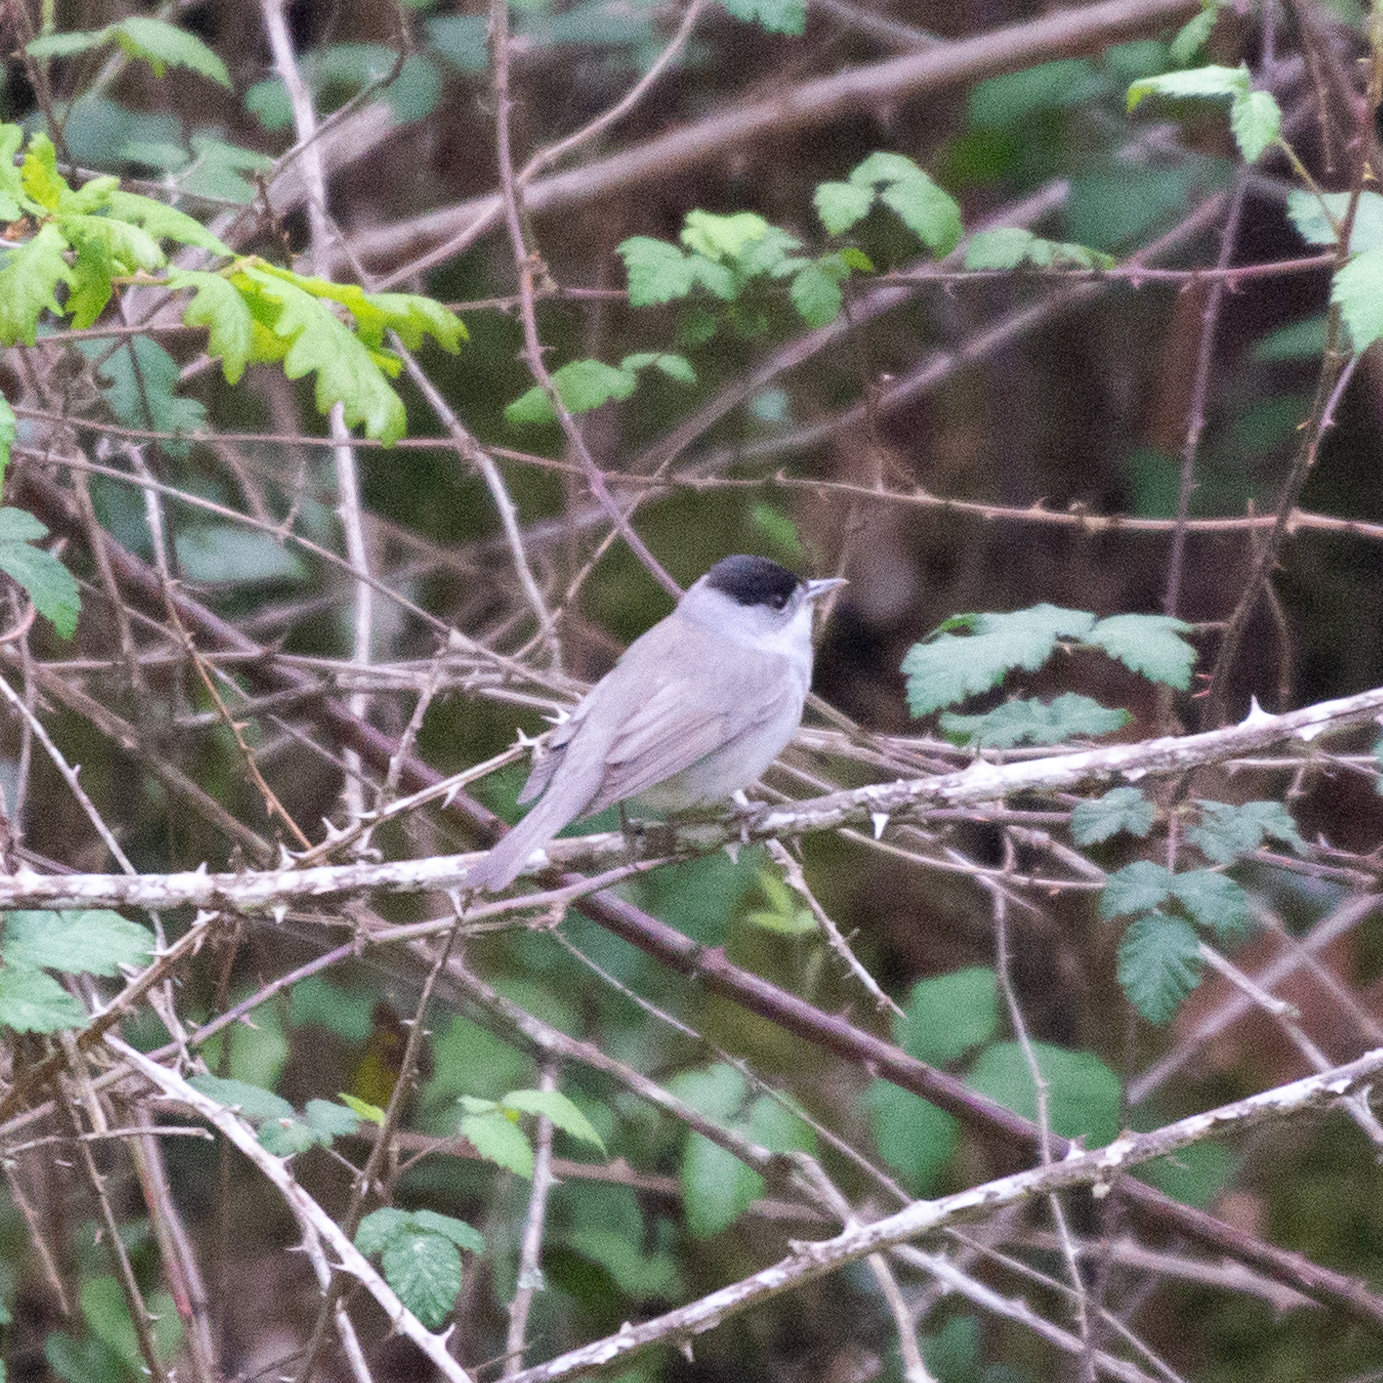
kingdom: Animalia
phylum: Chordata
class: Aves
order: Passeriformes
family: Sylviidae
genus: Sylvia
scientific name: Sylvia atricapilla
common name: Eurasian blackcap
